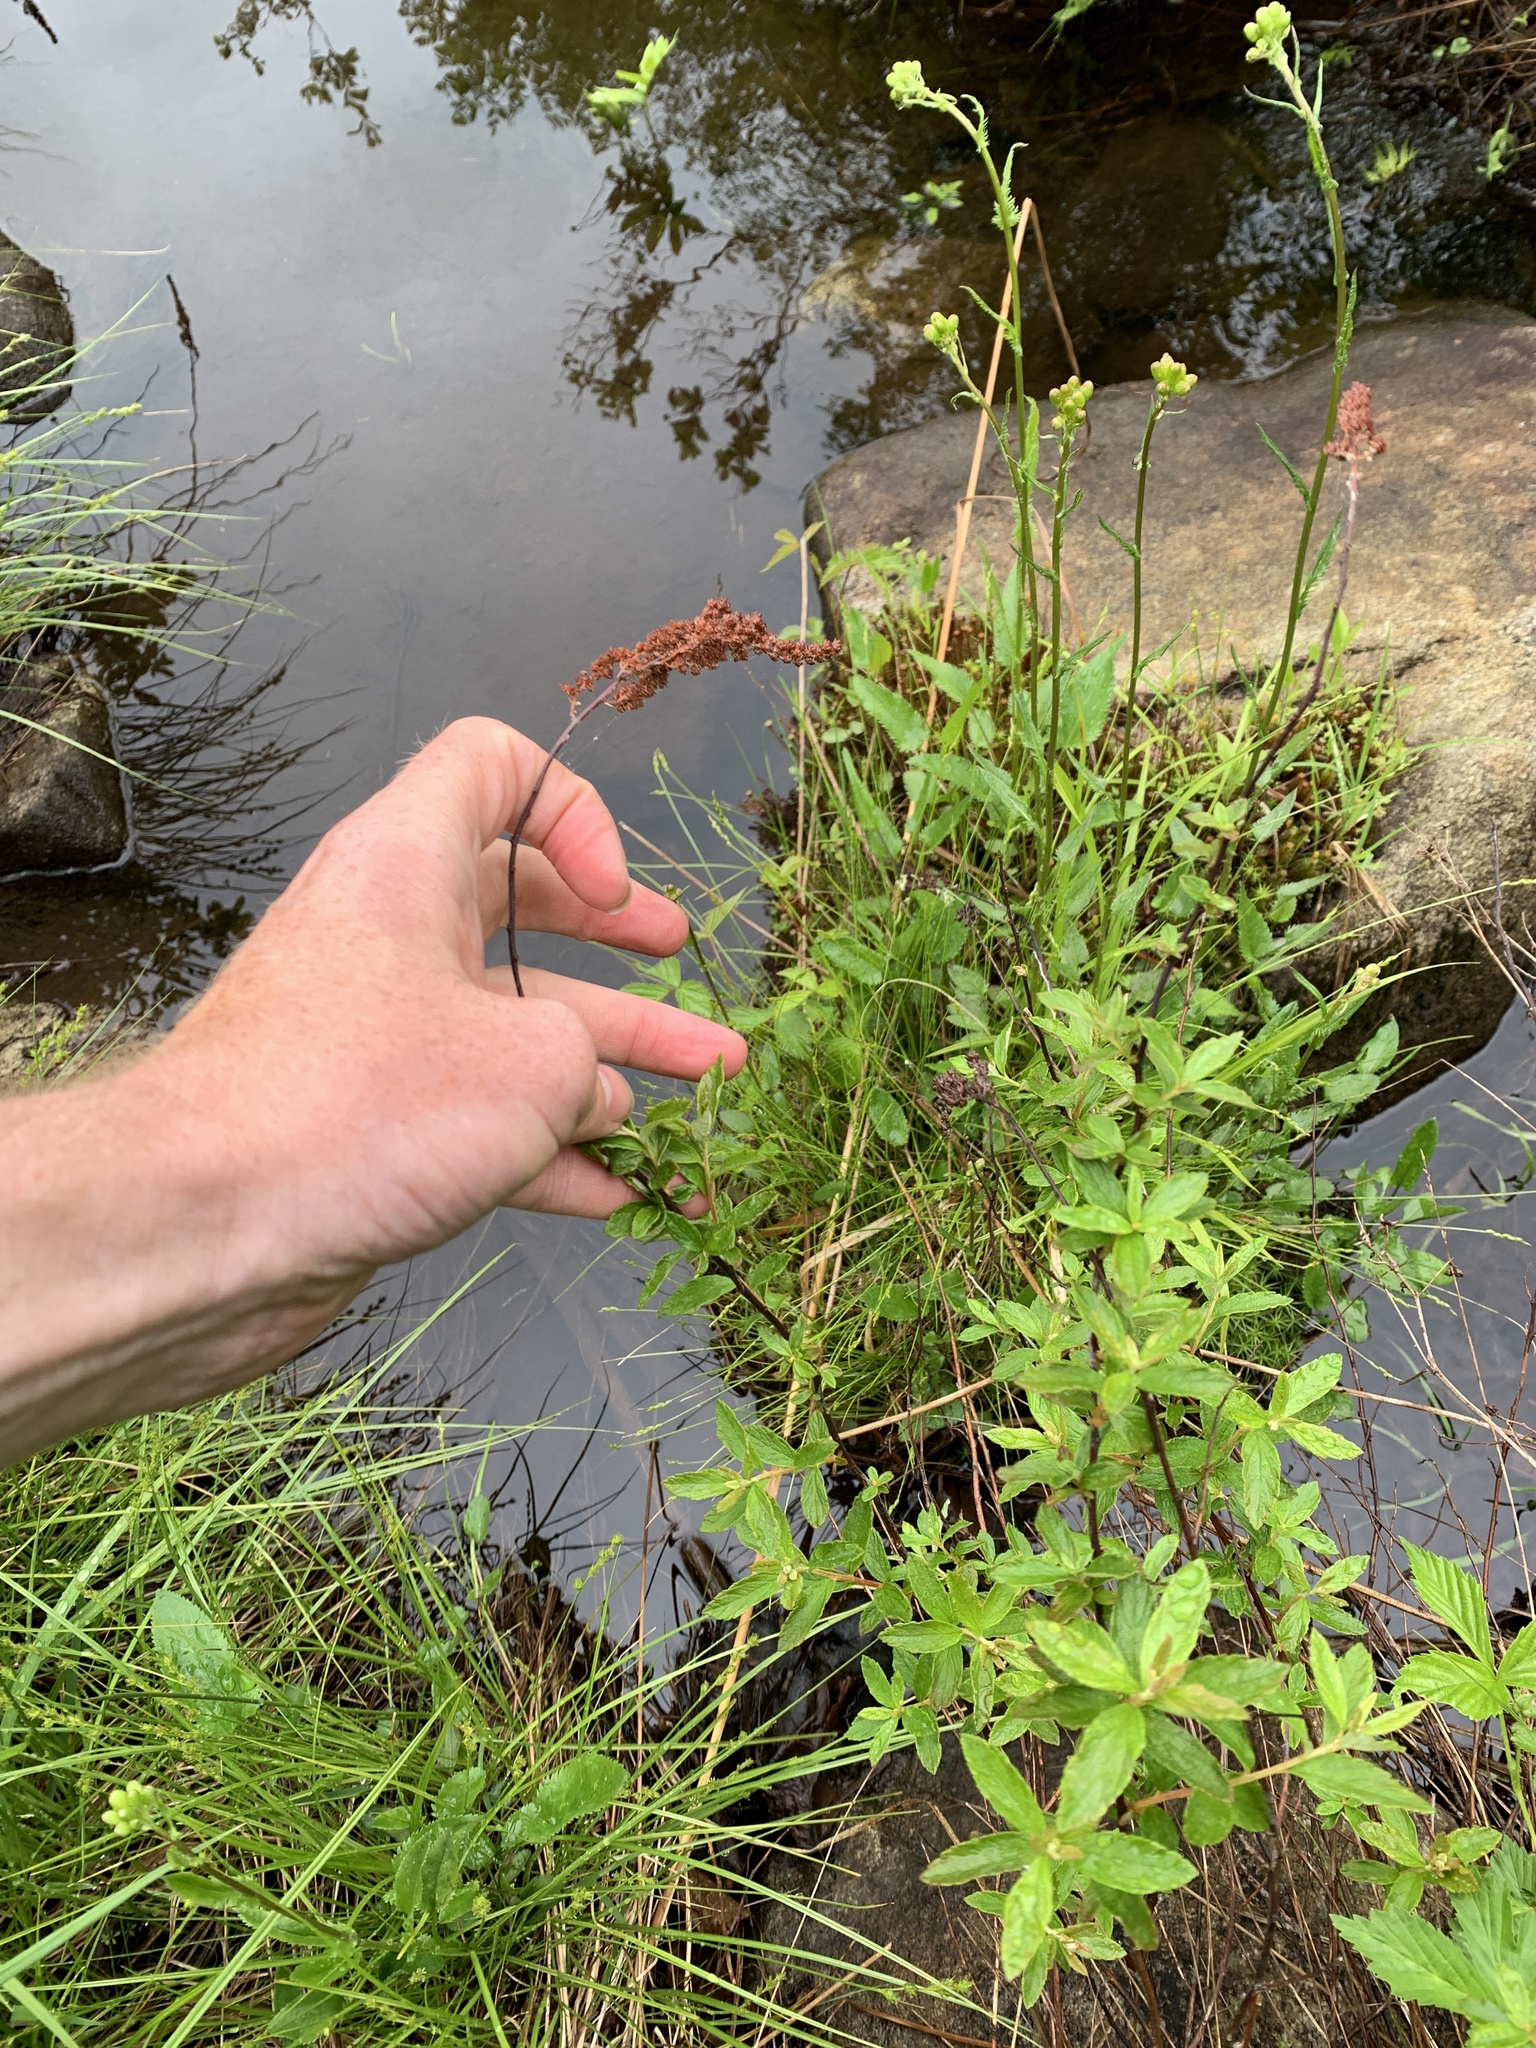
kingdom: Plantae
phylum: Tracheophyta
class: Magnoliopsida
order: Rosales
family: Rosaceae
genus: Spiraea
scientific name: Spiraea tomentosa
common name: Hardhack
